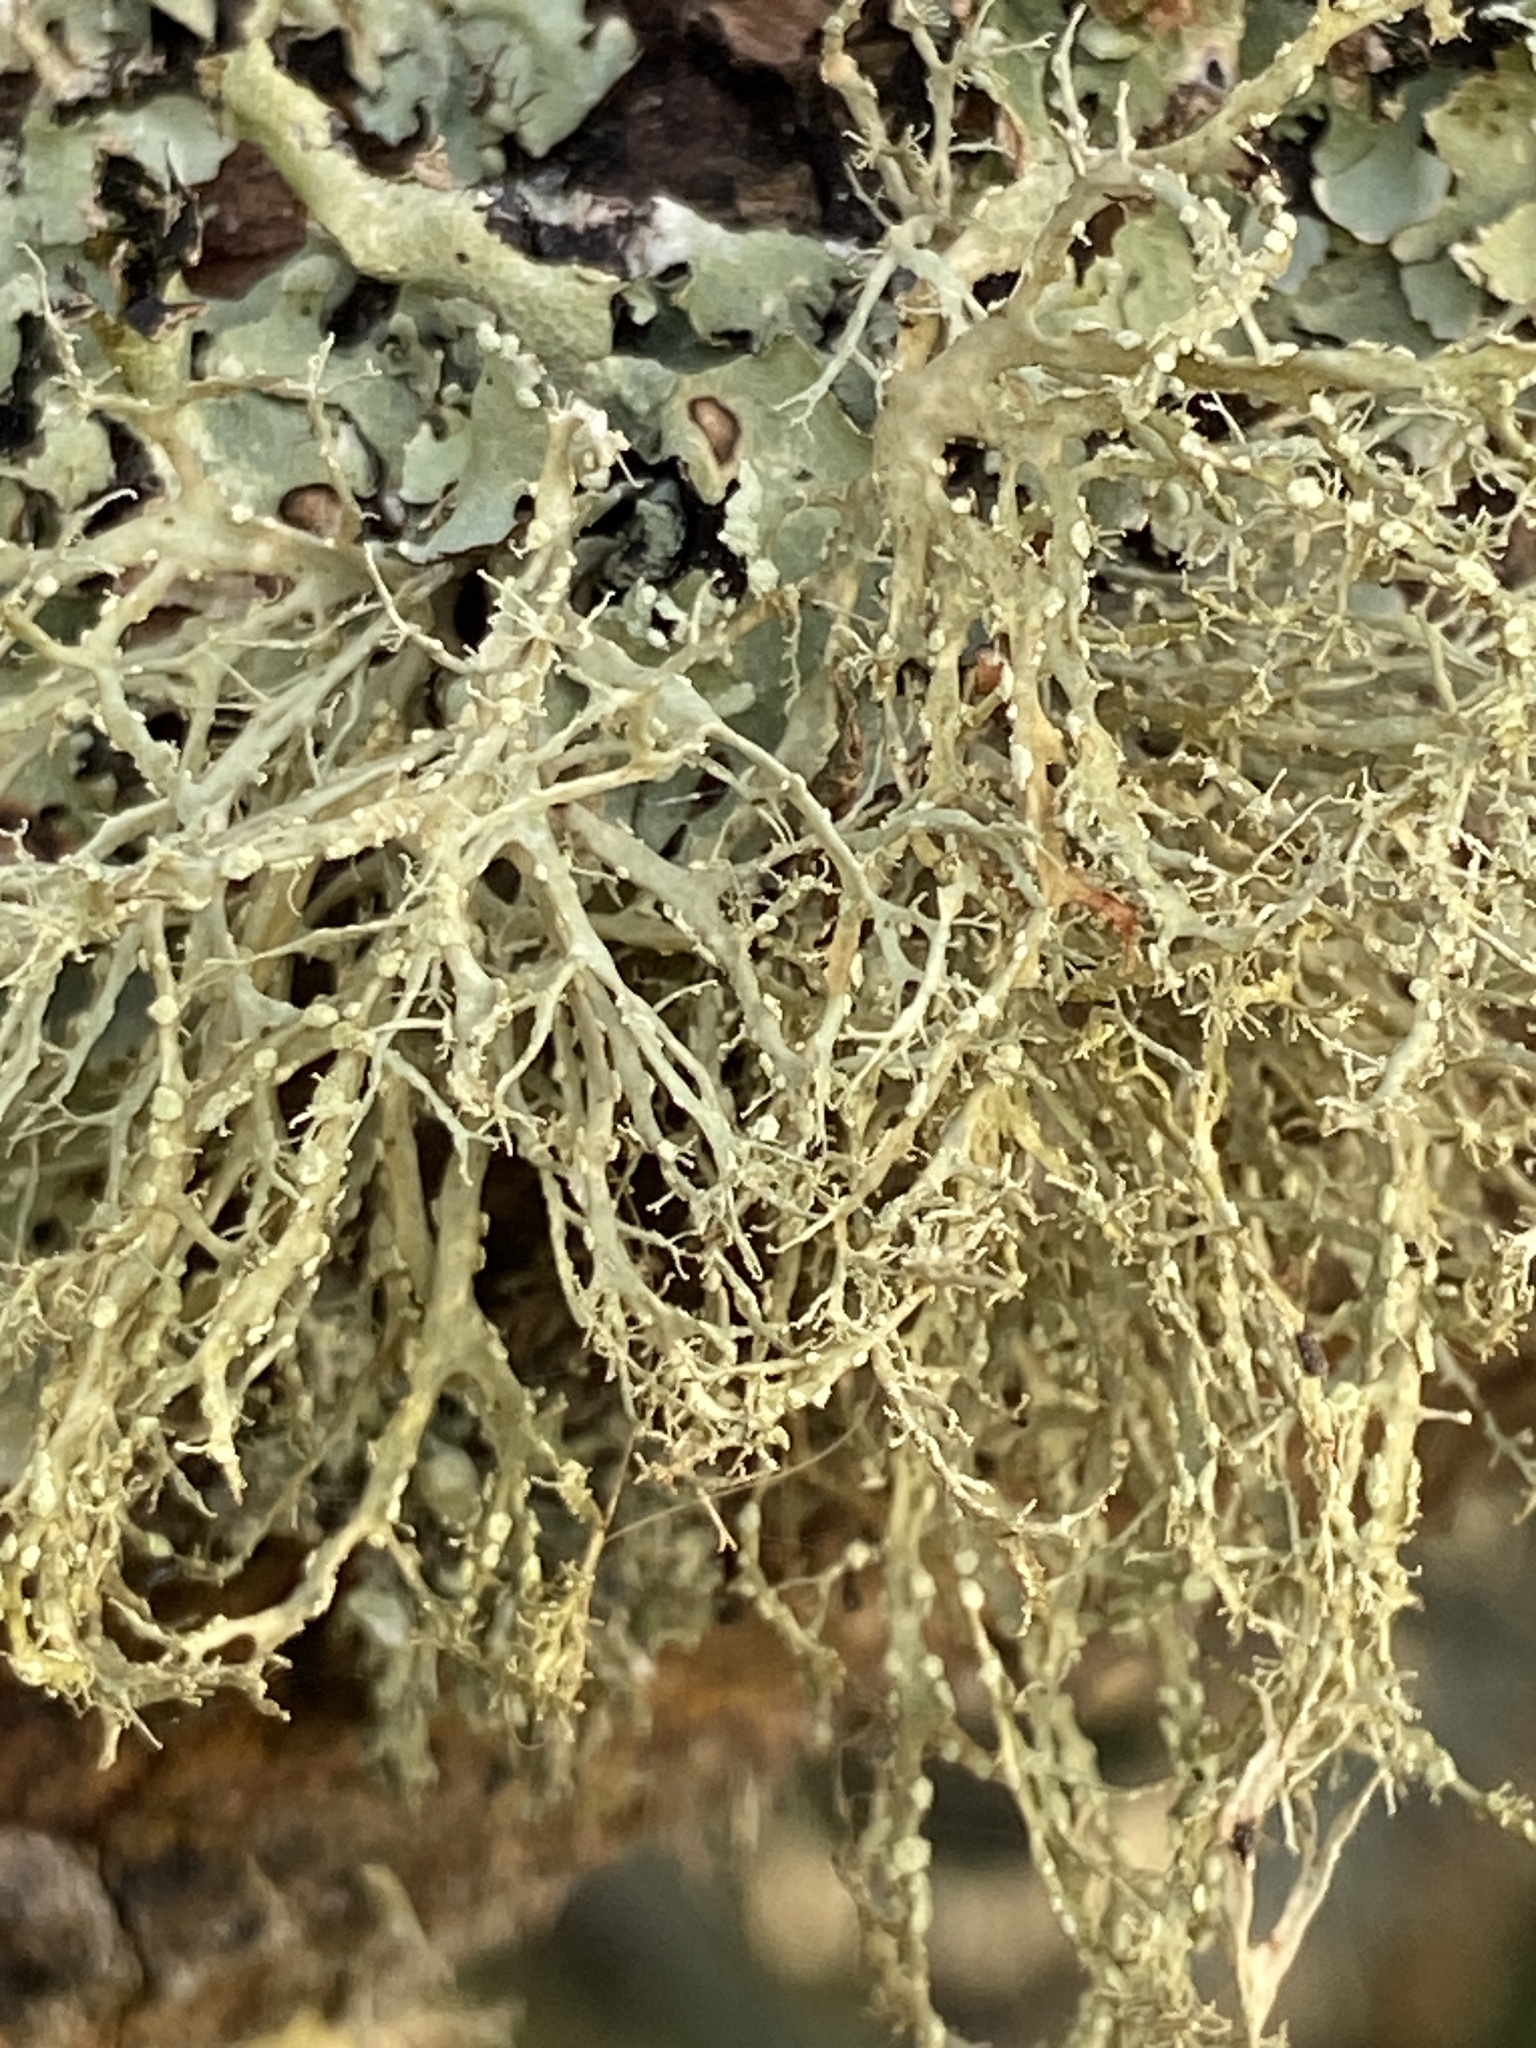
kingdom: Fungi
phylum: Ascomycota
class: Lecanoromycetes
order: Lecanorales
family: Ramalinaceae
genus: Ramalina
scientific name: Ramalina farinacea
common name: Farinose cartilage lichen
